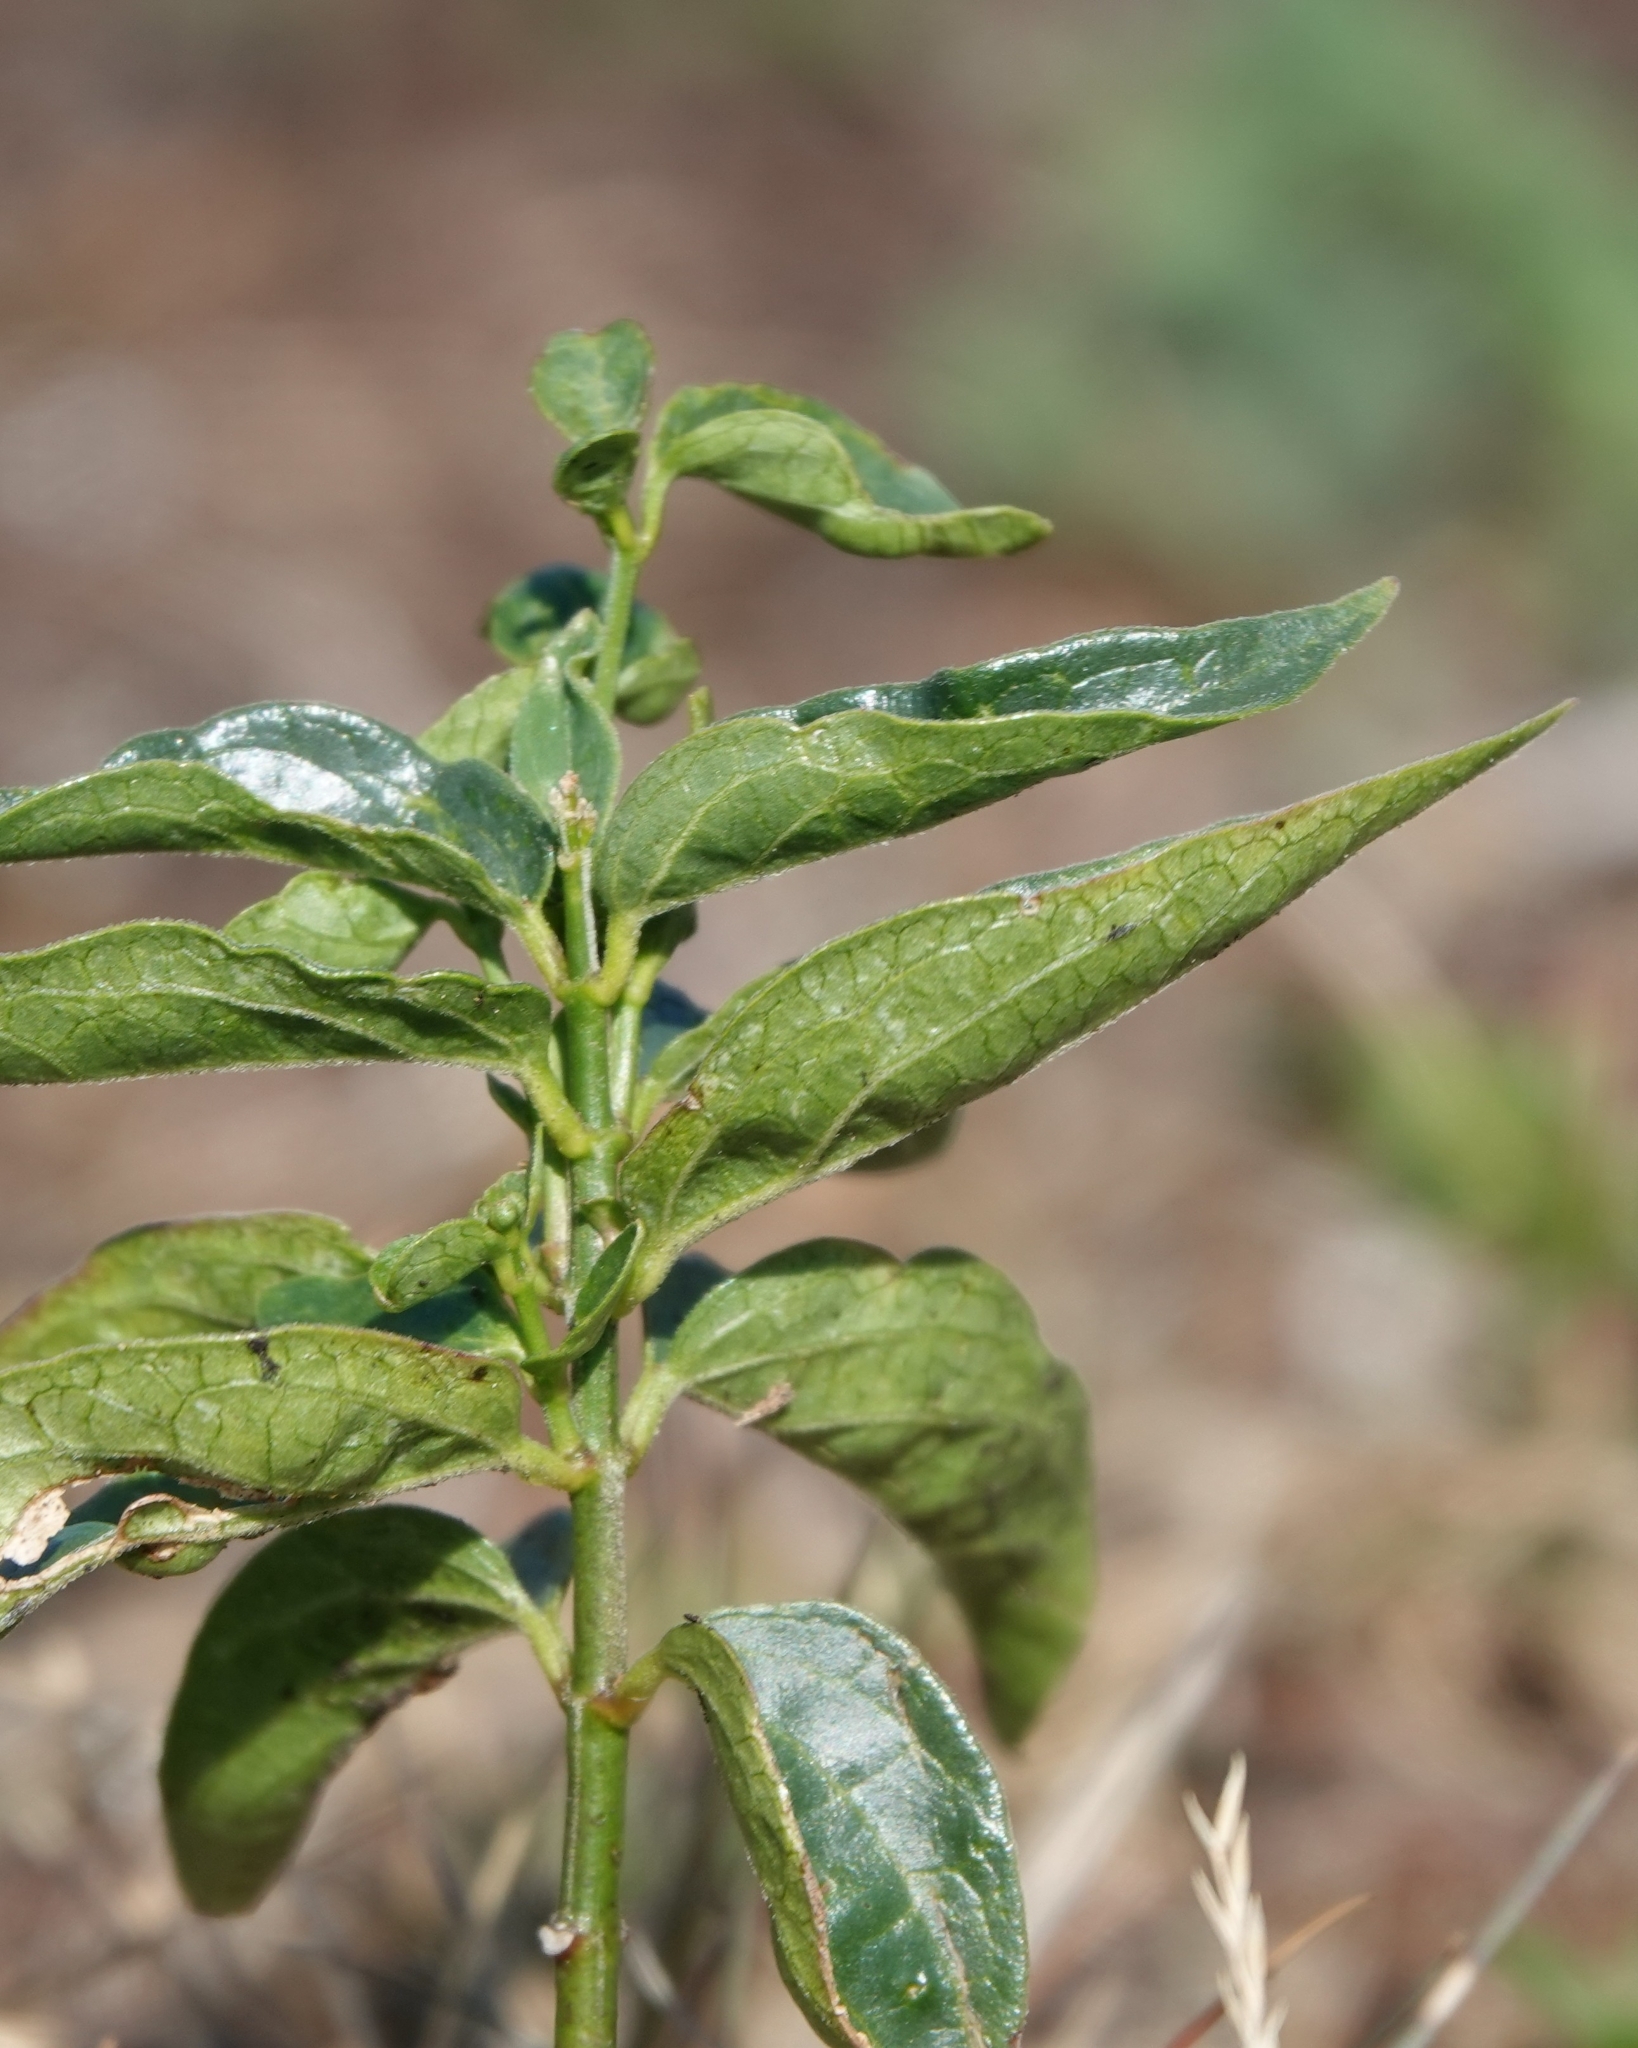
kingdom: Plantae
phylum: Tracheophyta
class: Magnoliopsida
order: Gentianales
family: Apocynaceae
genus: Vincetoxicum
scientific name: Vincetoxicum hirundinaria
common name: White swallowwort
